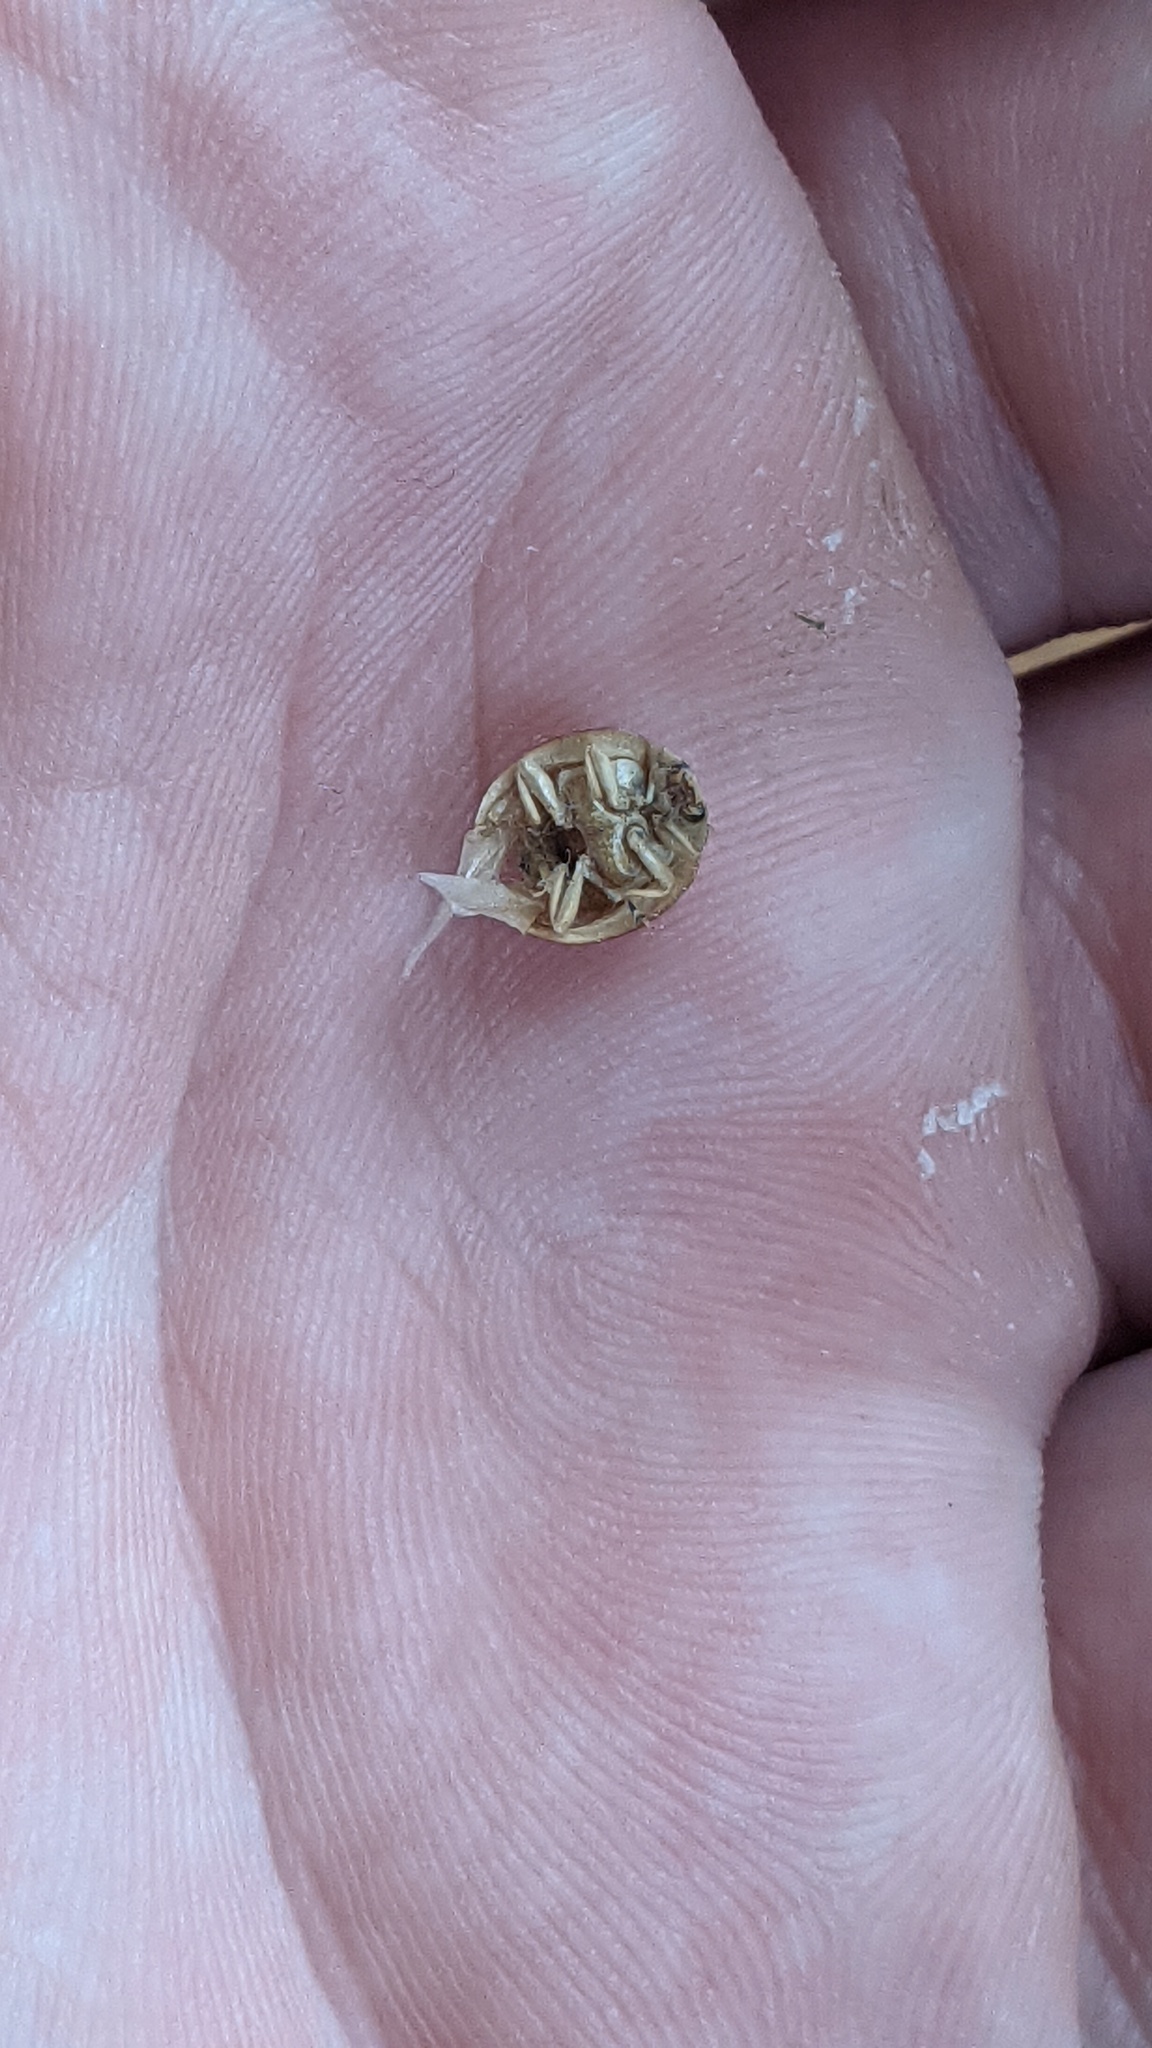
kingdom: Animalia
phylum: Arthropoda
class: Insecta
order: Coleoptera
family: Coccinellidae
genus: Harmonia
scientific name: Harmonia axyridis
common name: Harlequin ladybird
